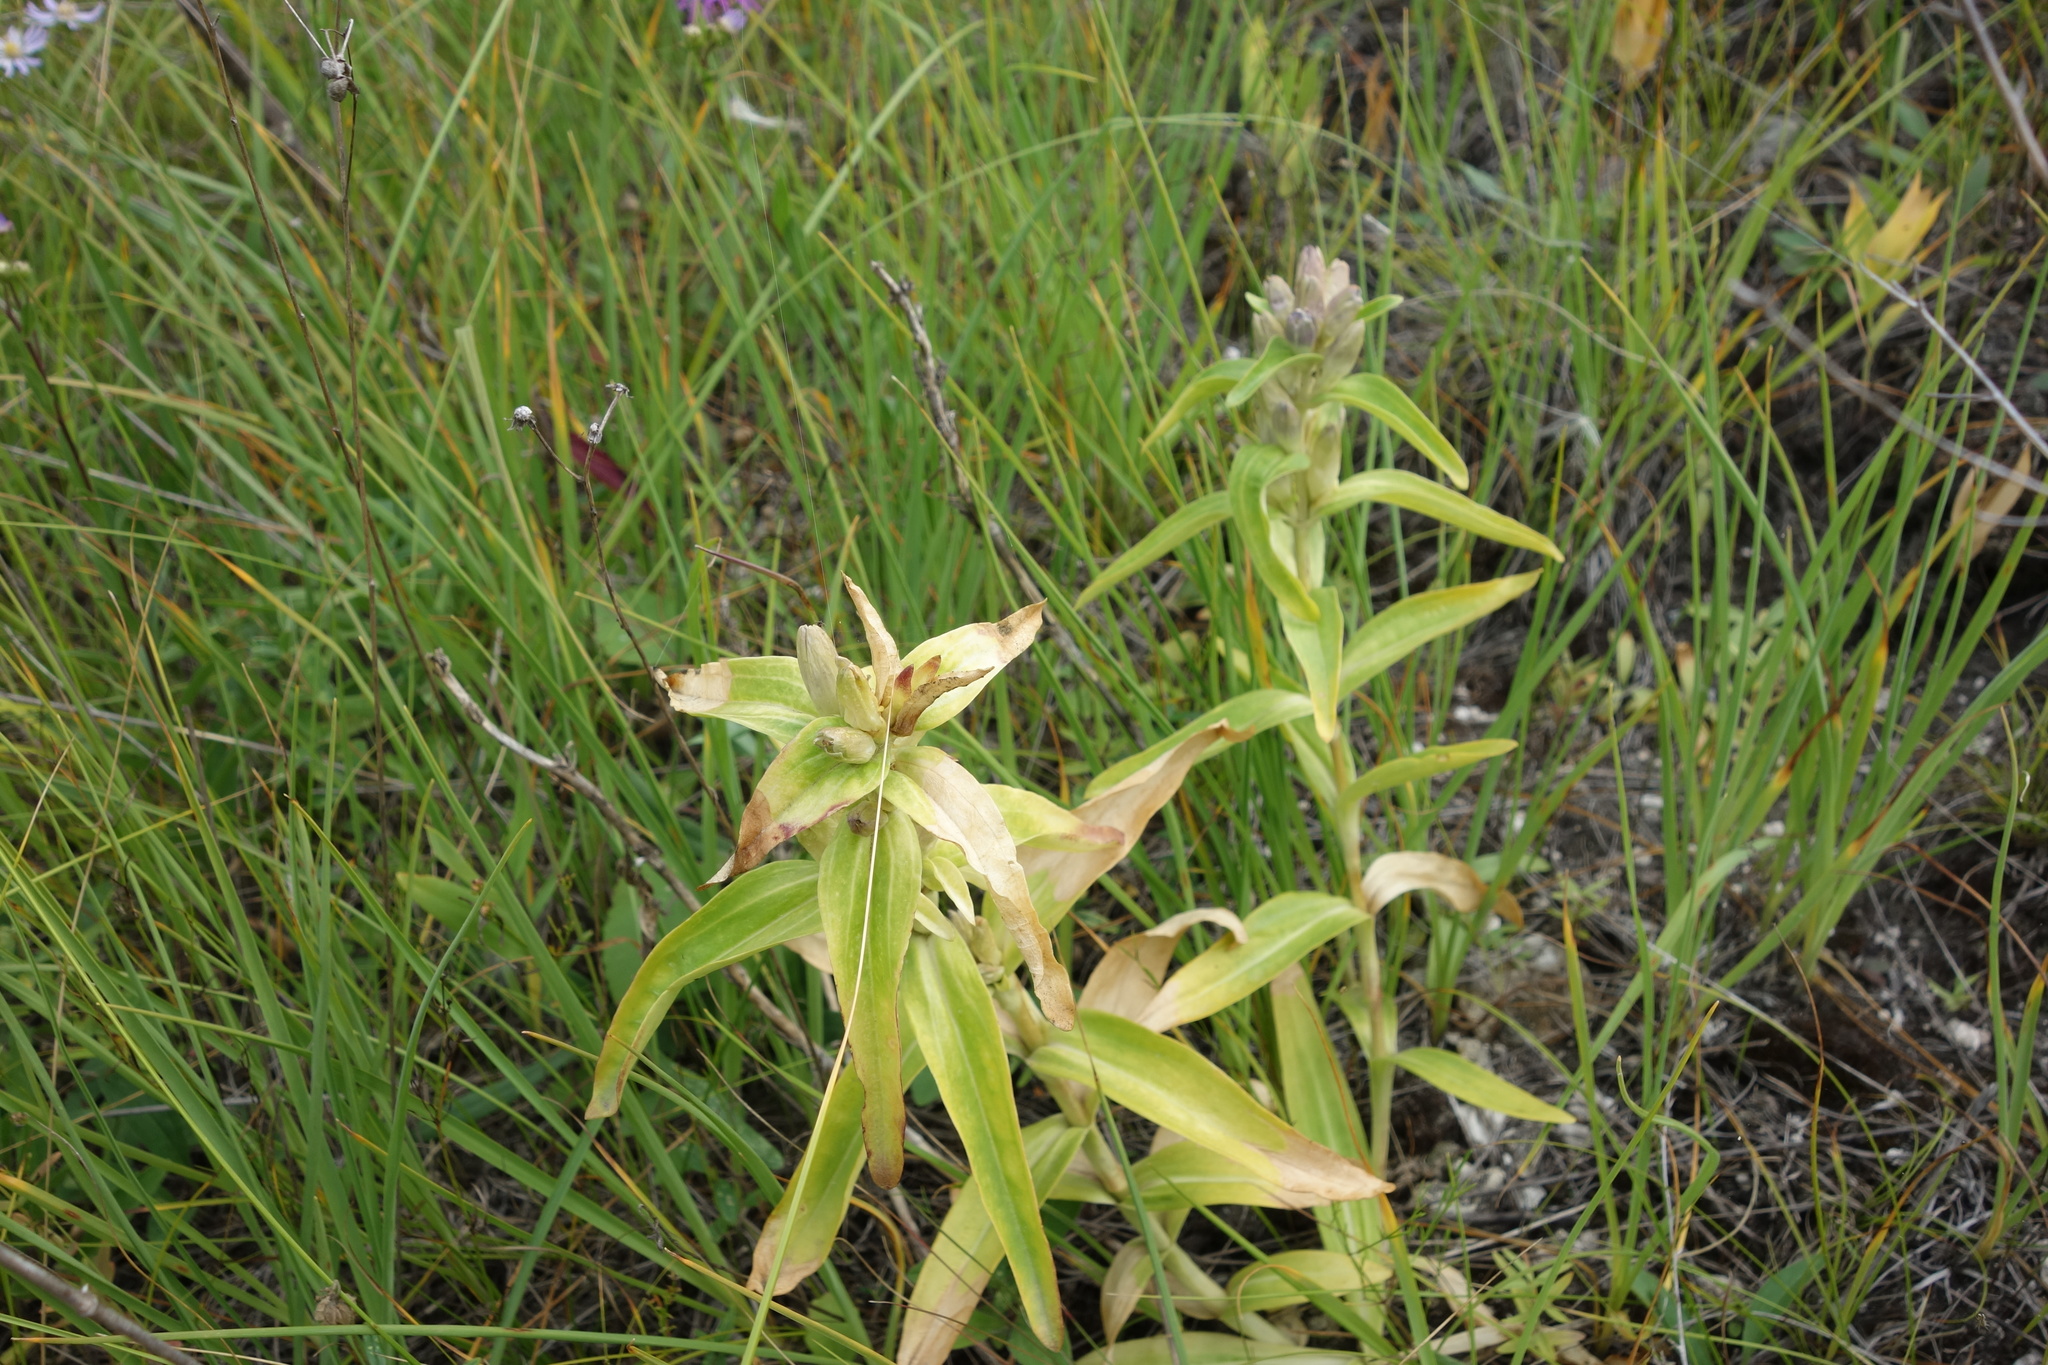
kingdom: Plantae
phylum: Tracheophyta
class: Magnoliopsida
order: Gentianales
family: Gentianaceae
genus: Gentiana
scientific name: Gentiana cruciata
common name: Cross gentian
